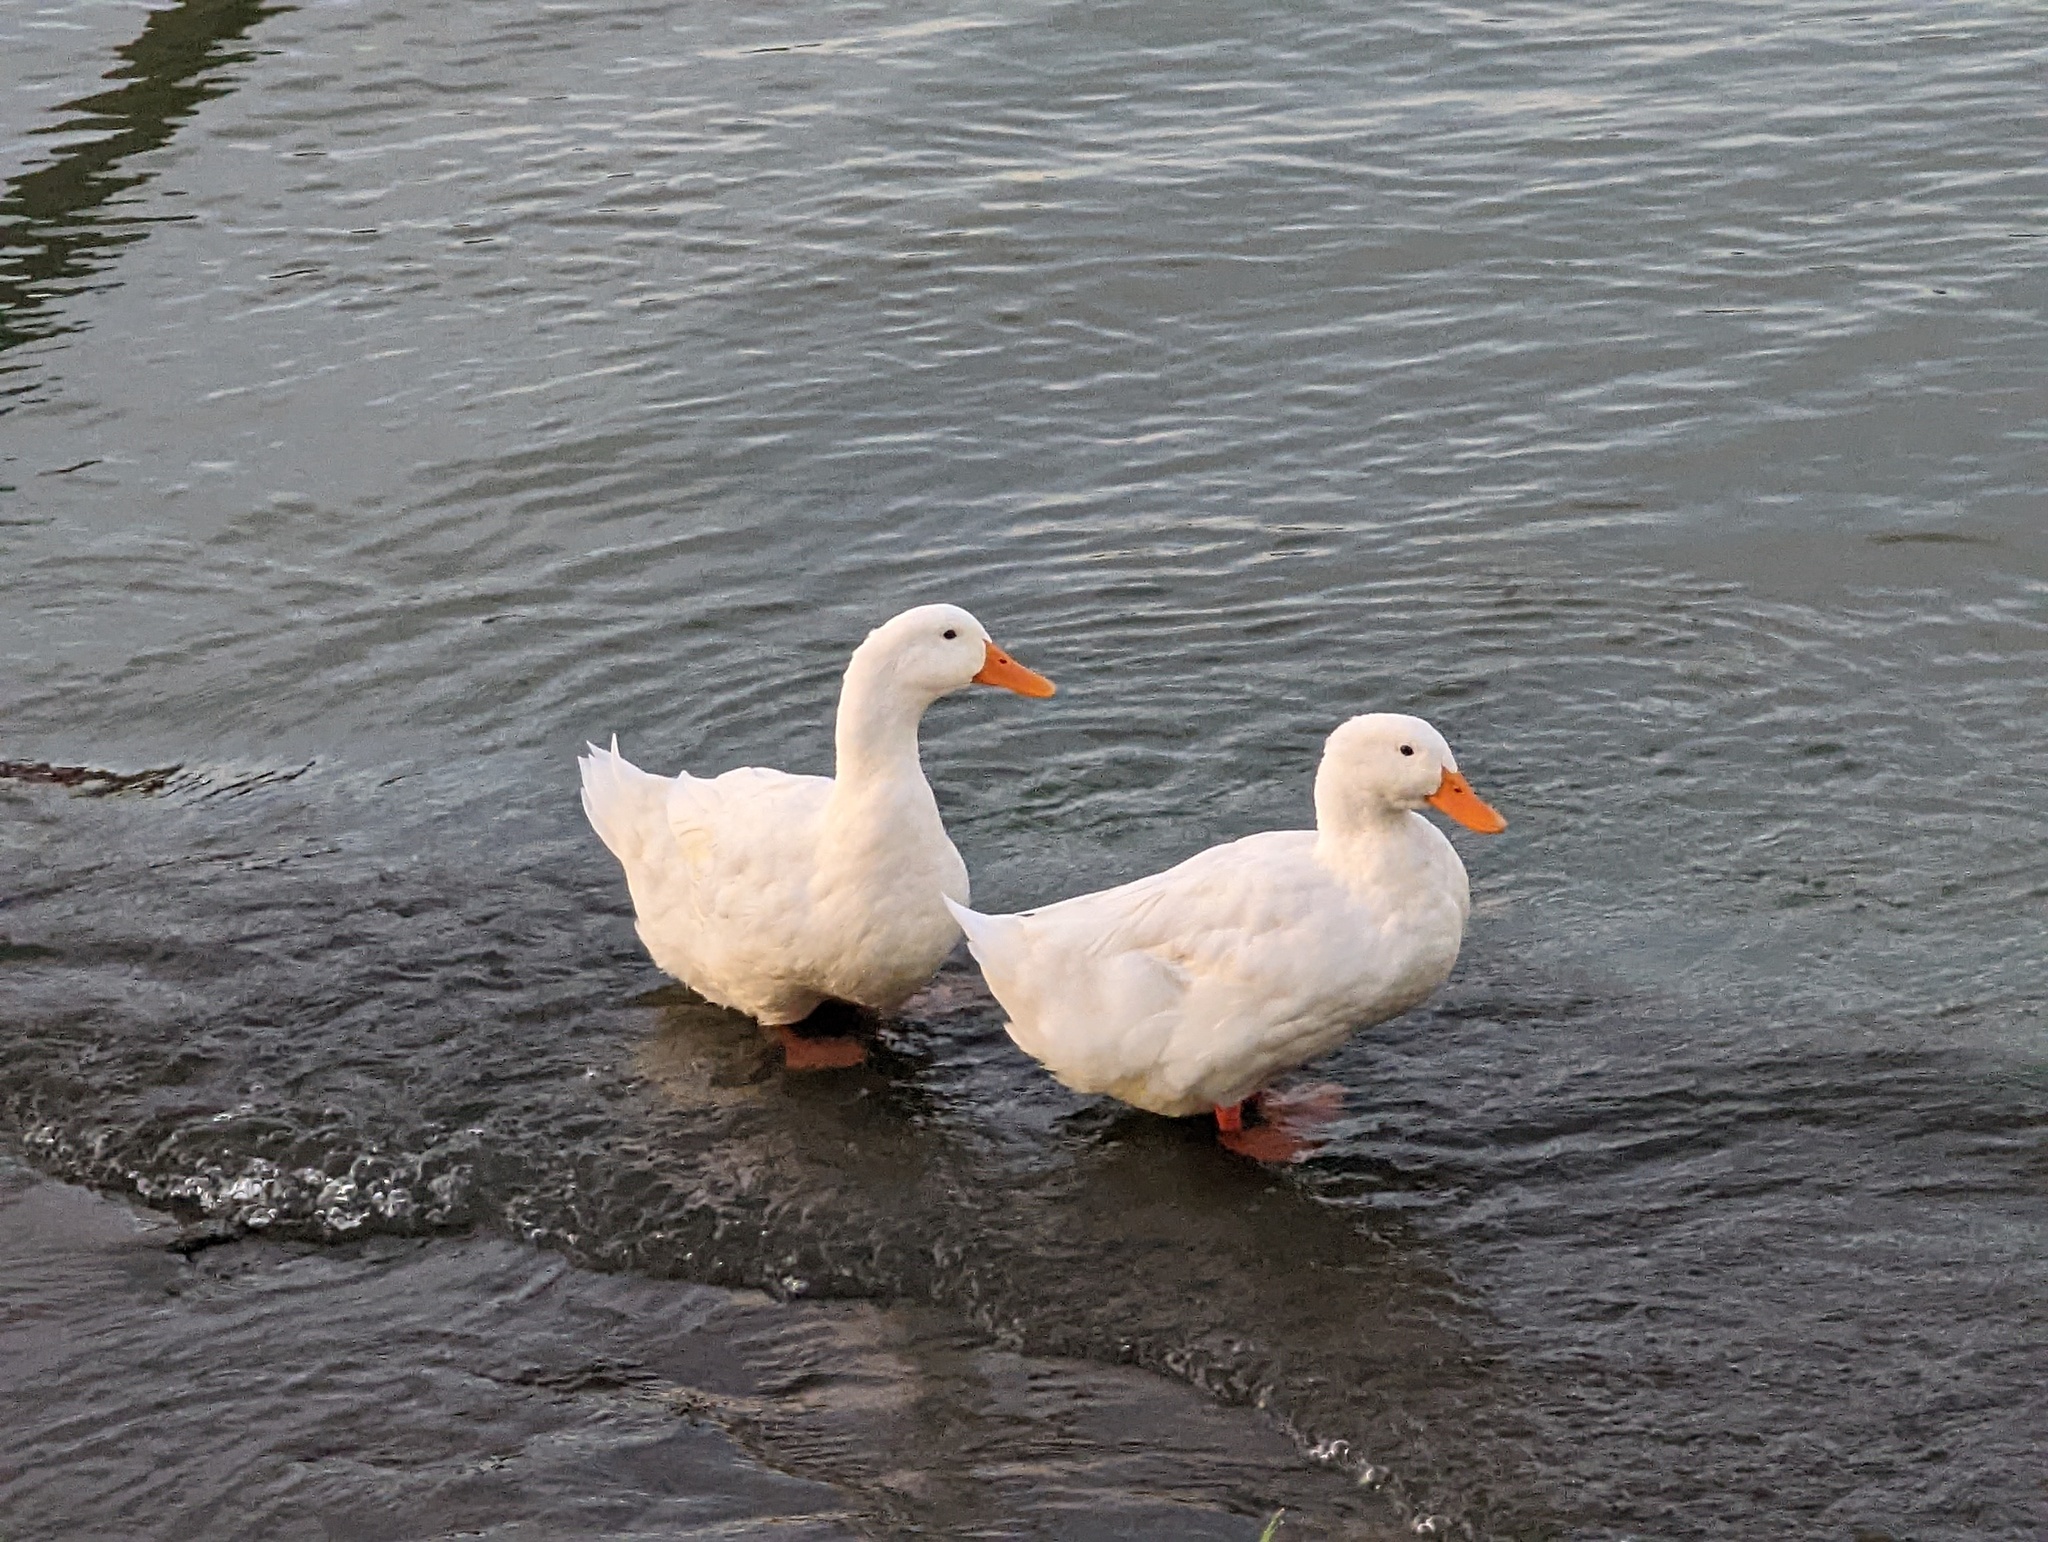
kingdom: Animalia
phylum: Chordata
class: Aves
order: Anseriformes
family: Anatidae
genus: Anas
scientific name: Anas platyrhynchos
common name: Mallard
